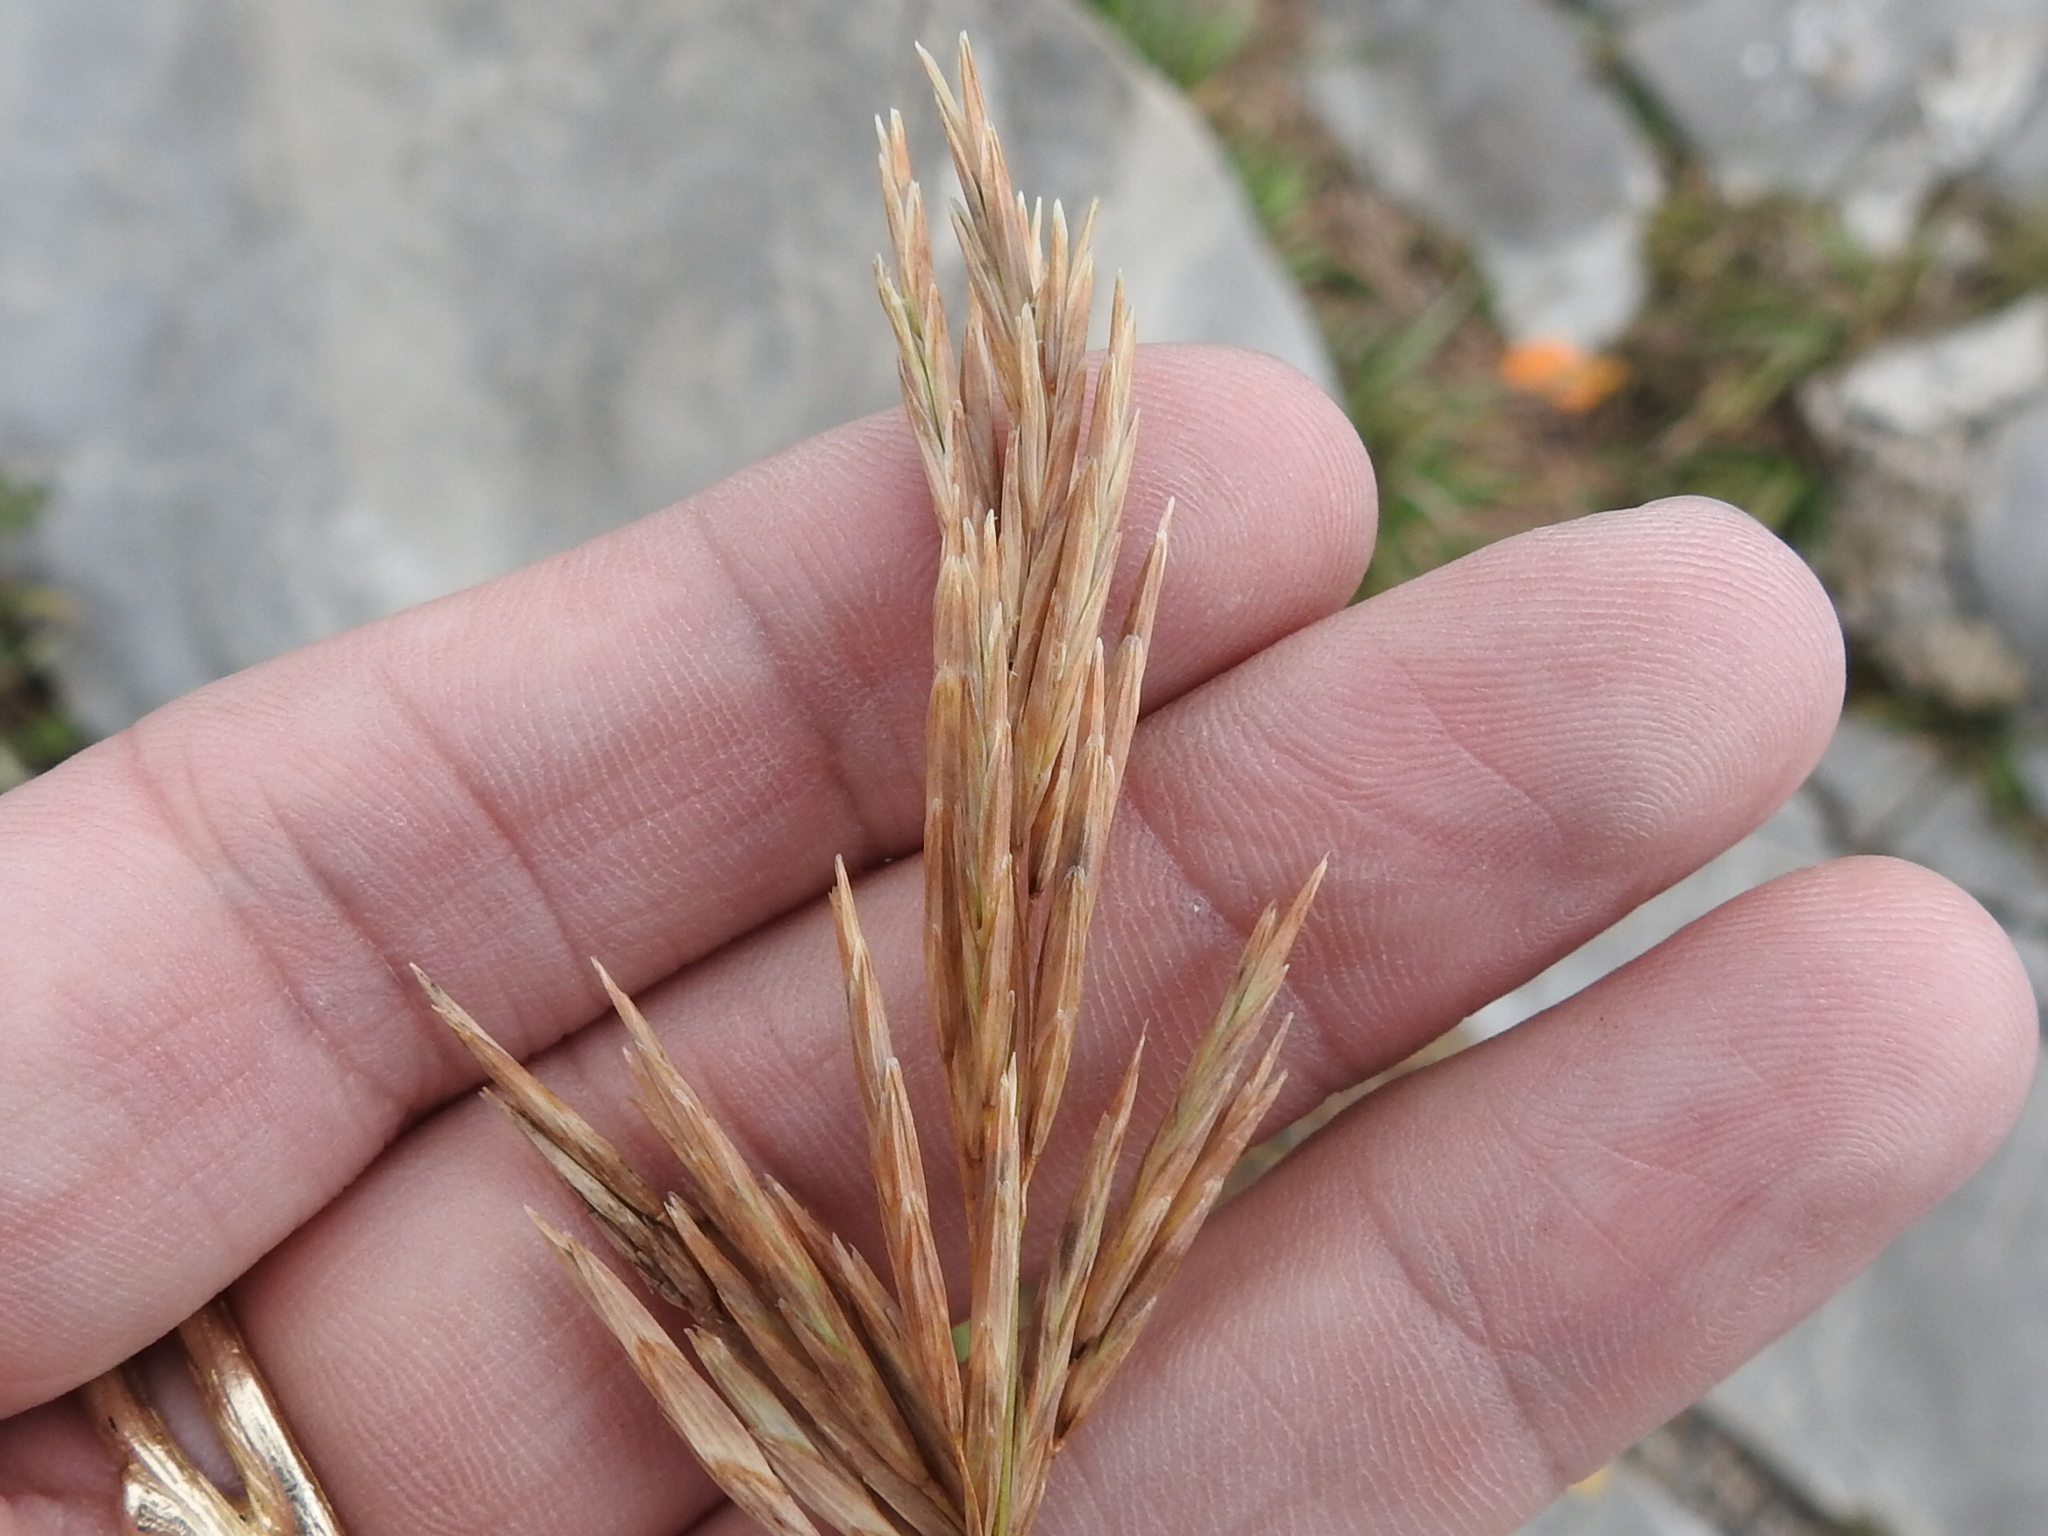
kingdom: Plantae
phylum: Tracheophyta
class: Liliopsida
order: Poales
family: Poaceae
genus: Bromus
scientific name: Bromus inermis
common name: Smooth brome
